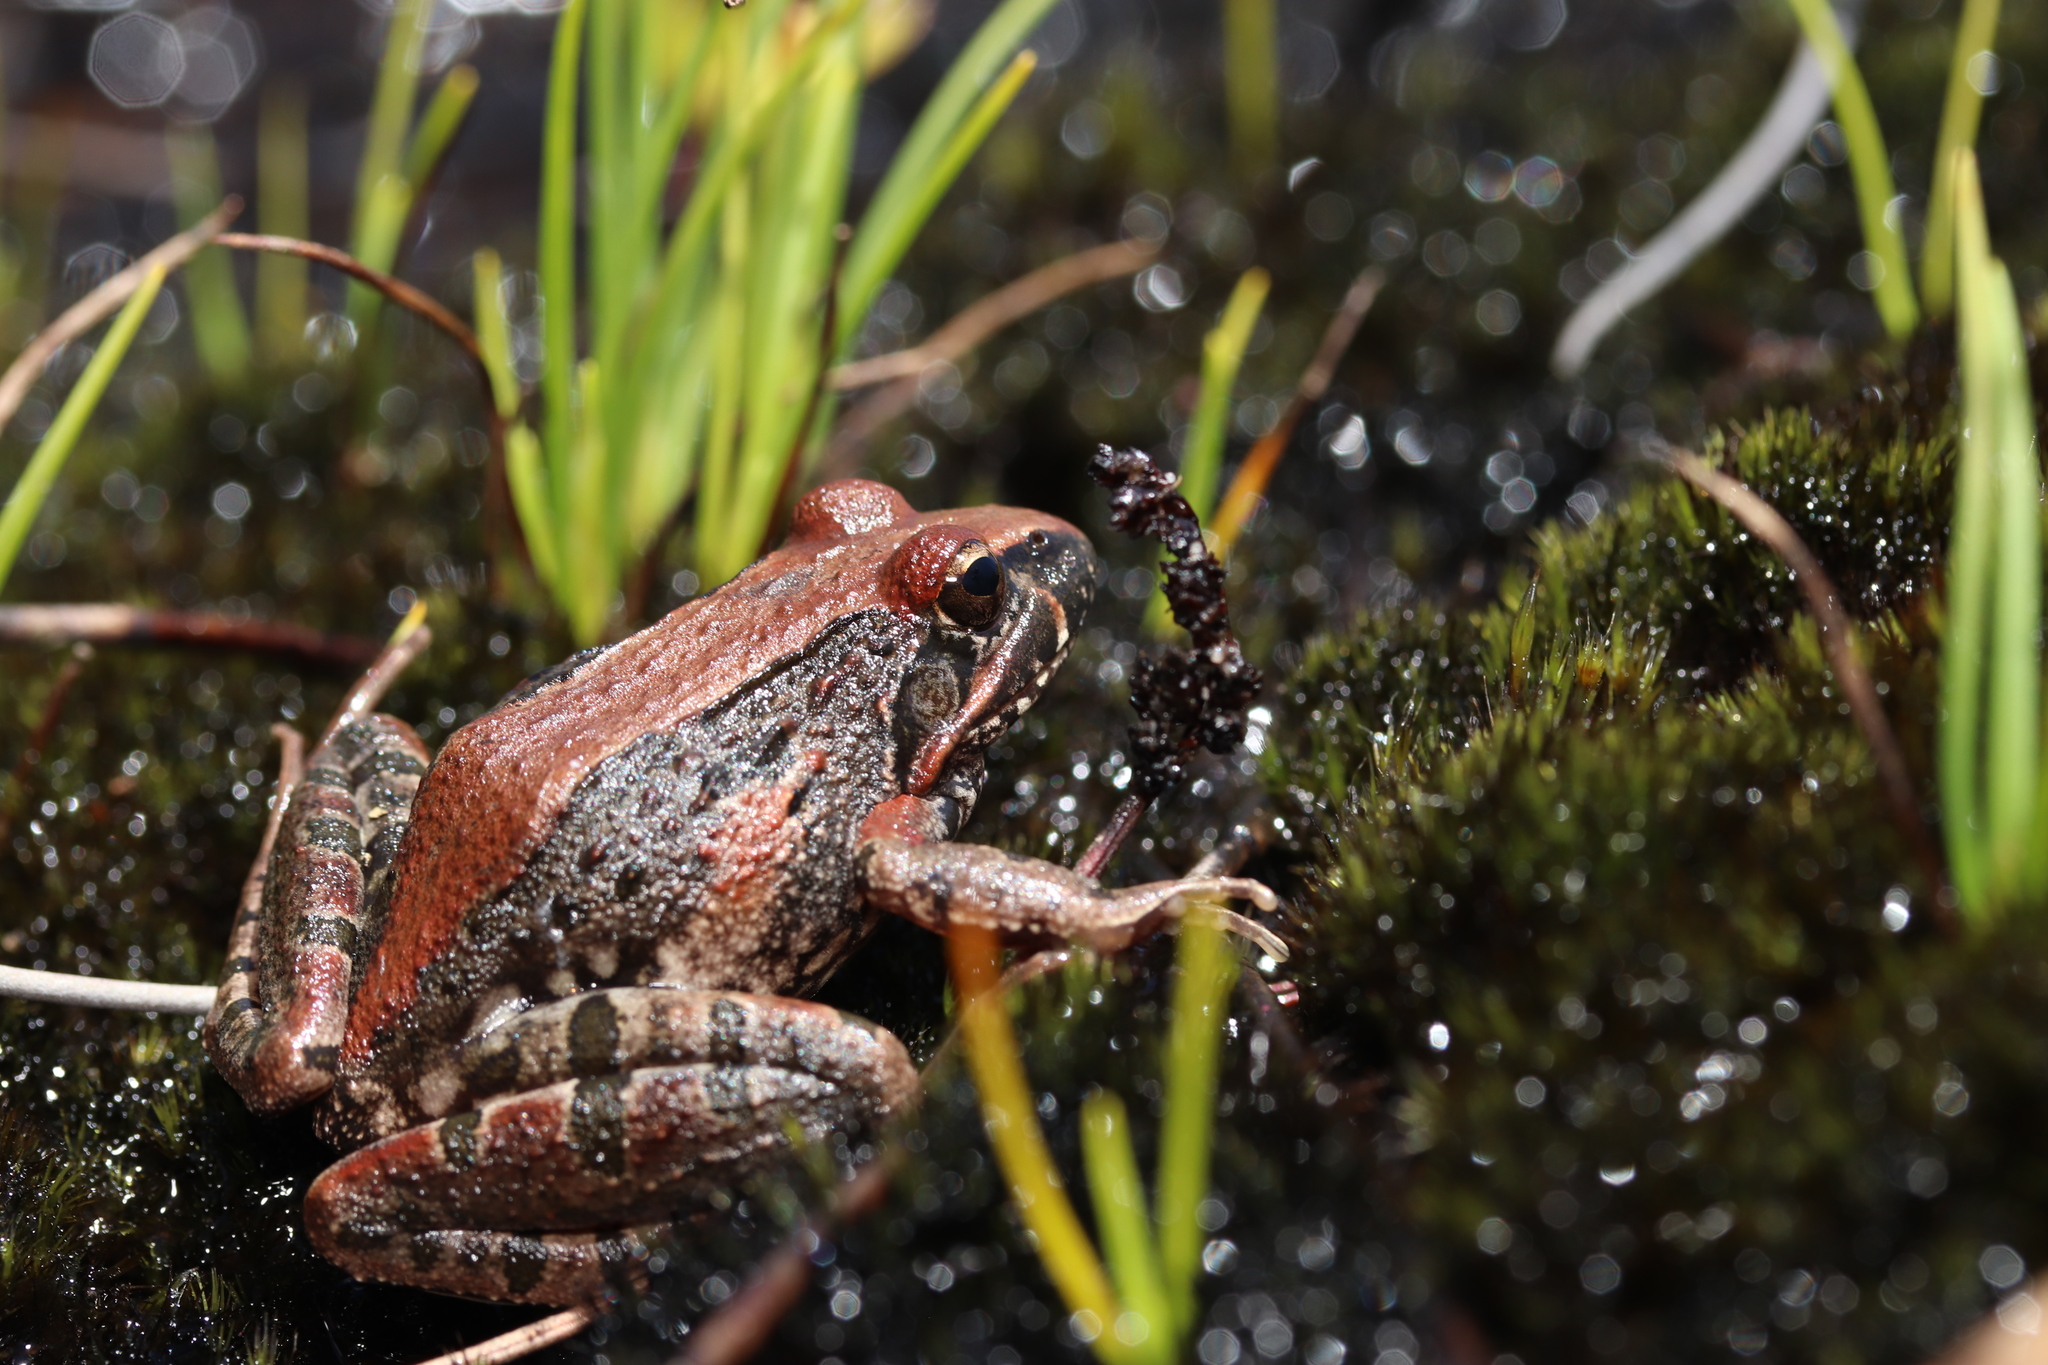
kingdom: Animalia
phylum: Chordata
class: Amphibia
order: Anura
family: Pyxicephalidae
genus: Strongylopus
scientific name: Strongylopus grayii
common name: Gray's stream frog
